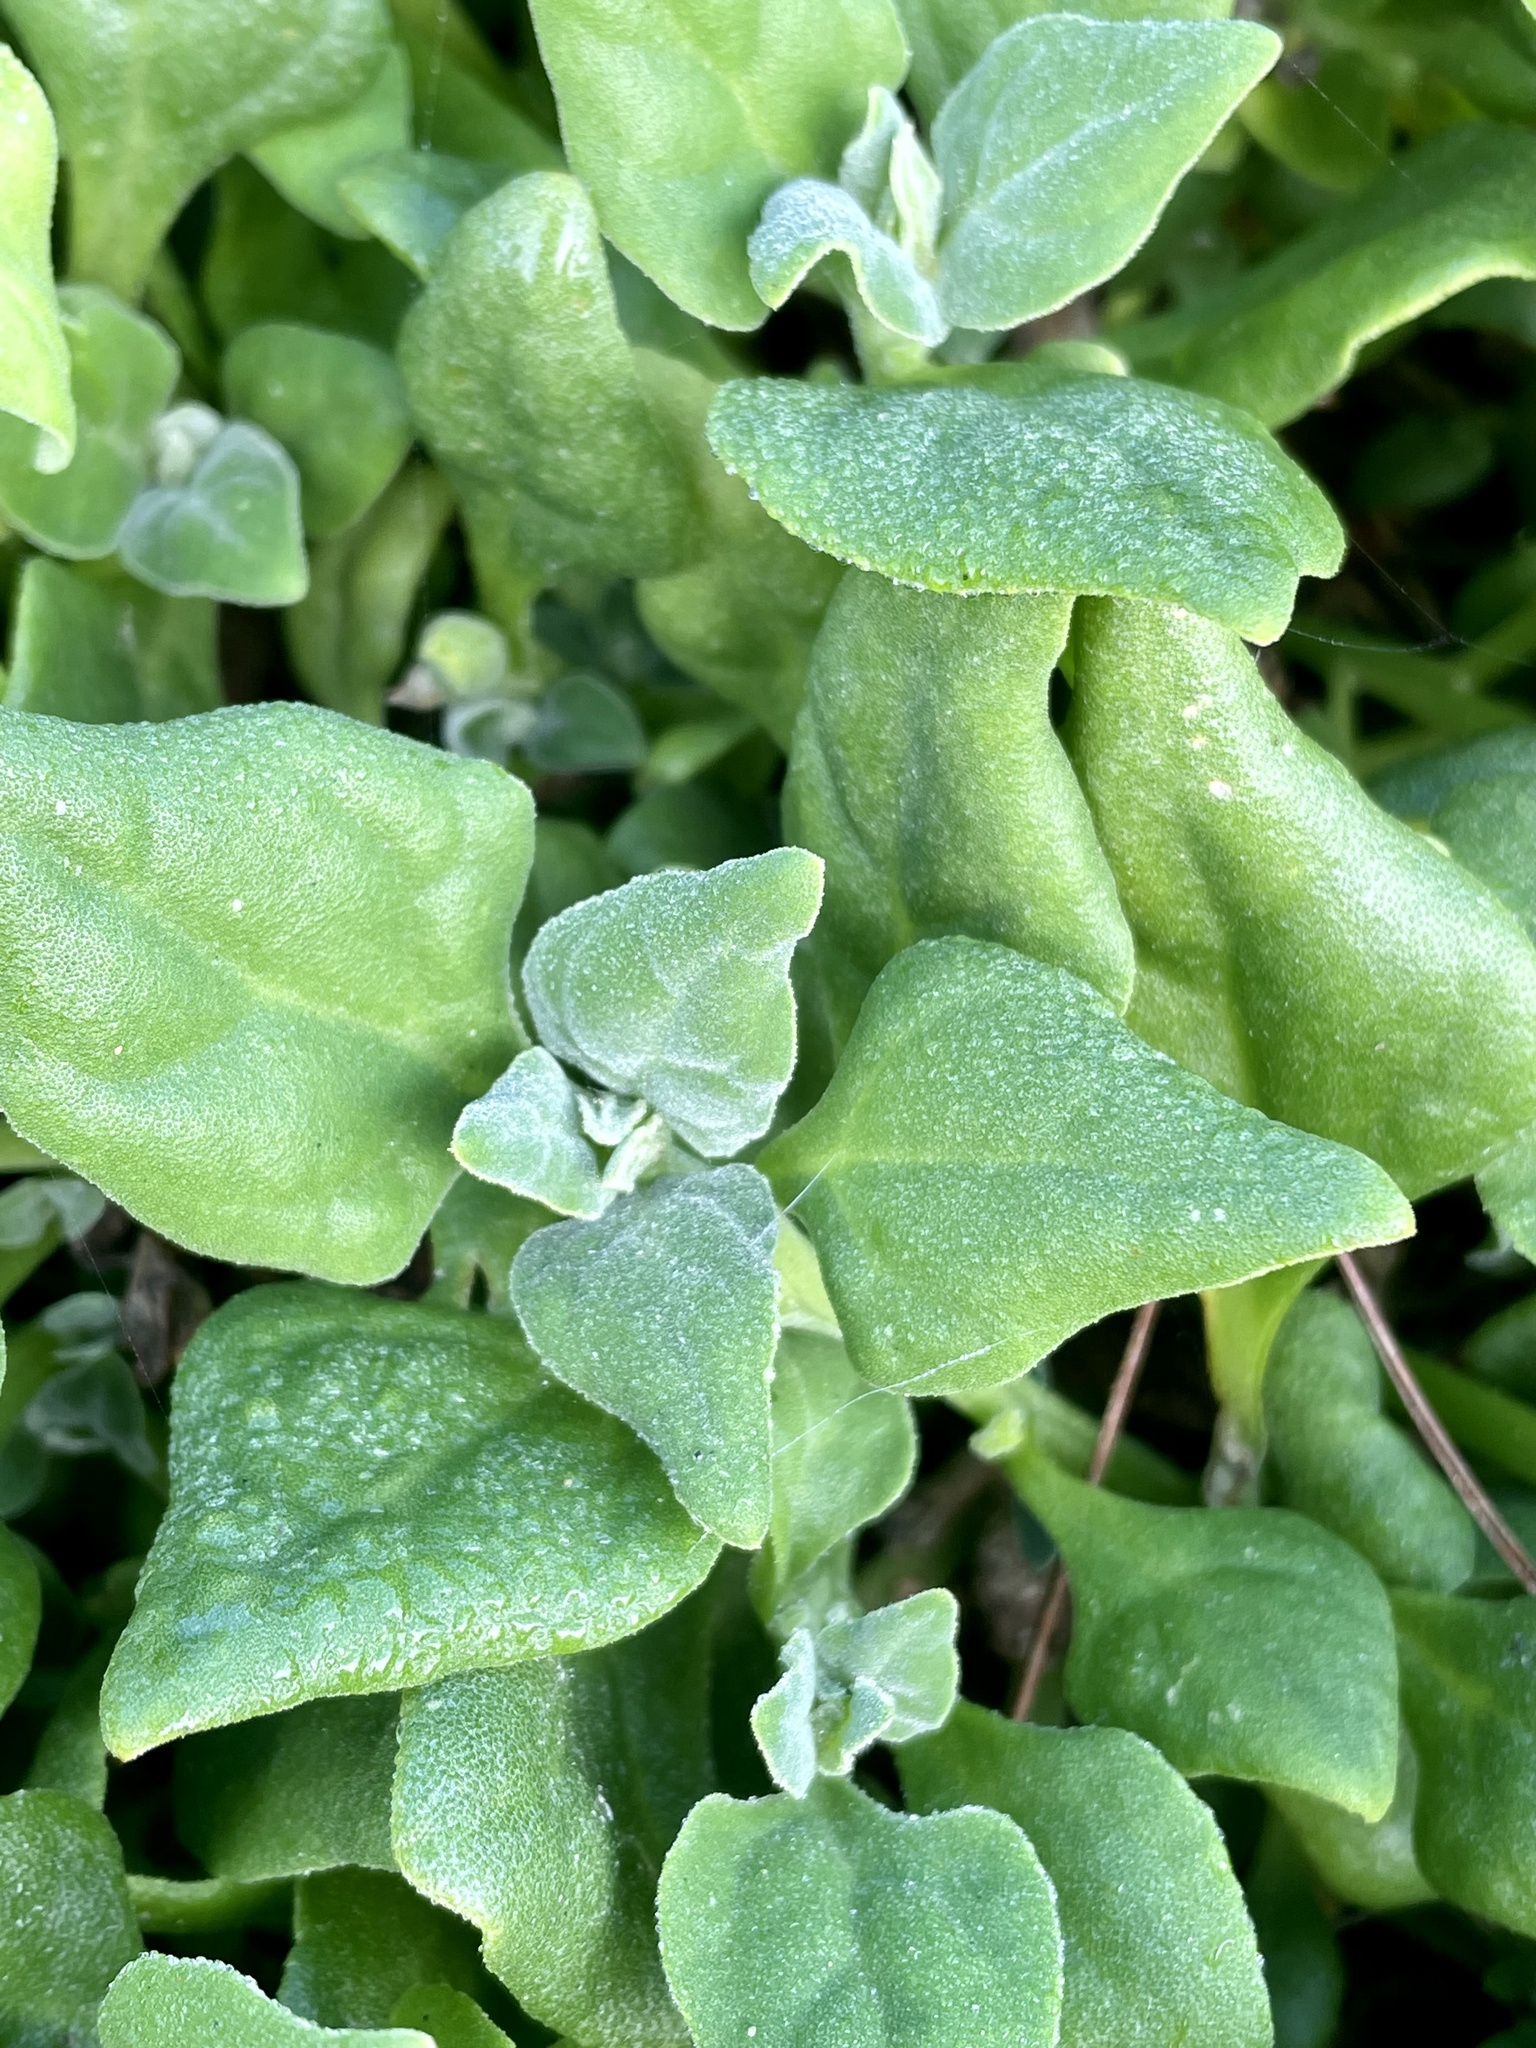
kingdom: Plantae
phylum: Tracheophyta
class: Magnoliopsida
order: Caryophyllales
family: Aizoaceae
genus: Tetragonia
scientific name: Tetragonia tetragonoides
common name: New zealand-spinach
